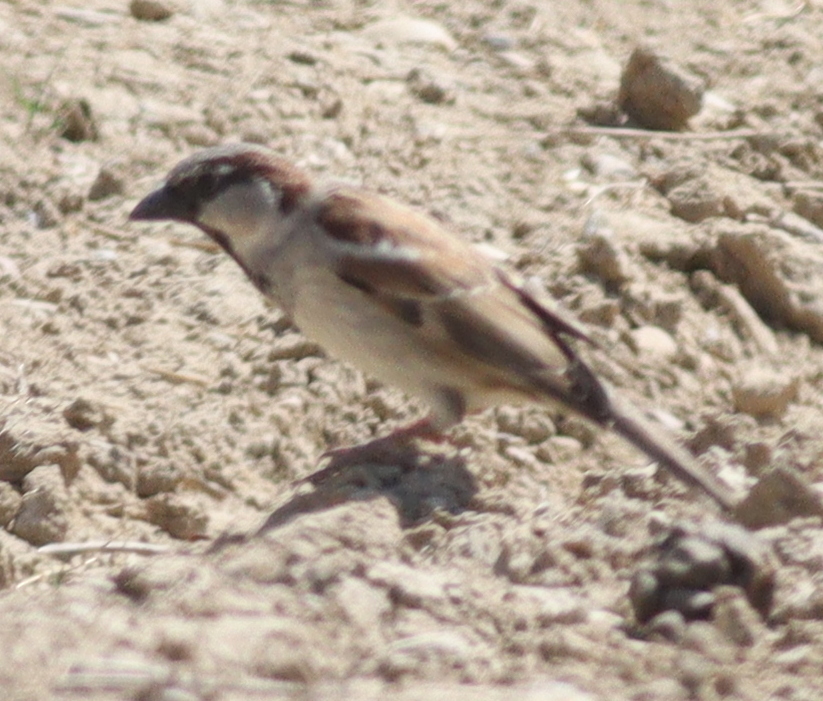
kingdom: Animalia
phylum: Chordata
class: Aves
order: Passeriformes
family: Passeridae
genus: Passer
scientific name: Passer domesticus
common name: House sparrow
